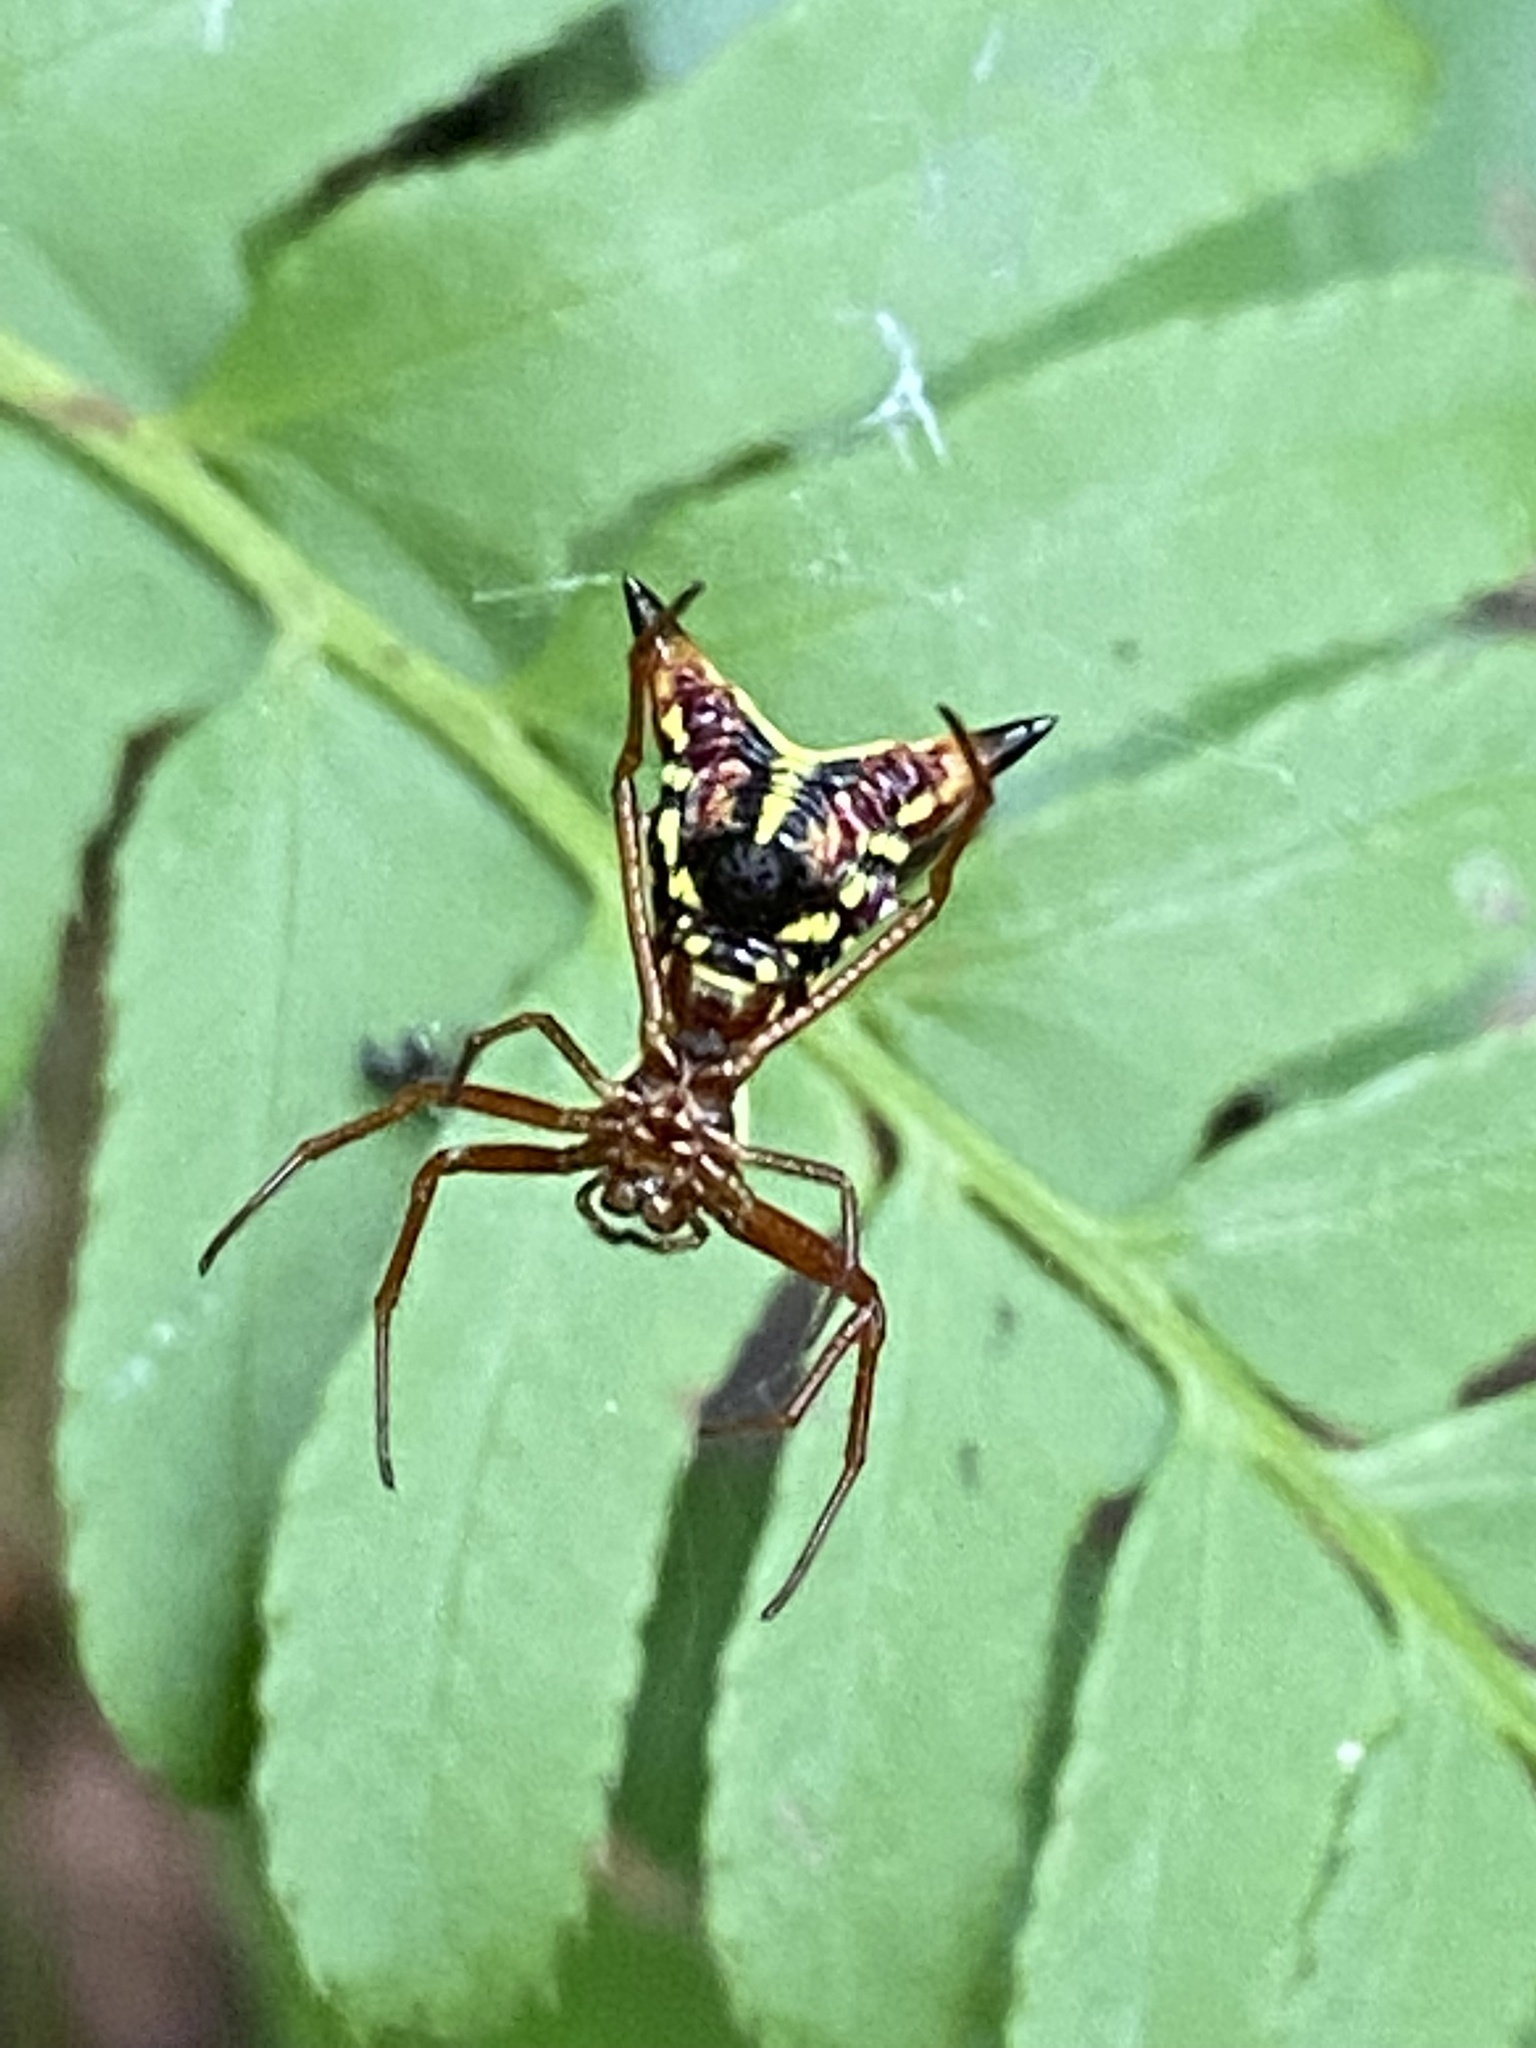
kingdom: Animalia
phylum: Arthropoda
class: Arachnida
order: Araneae
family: Araneidae
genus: Micrathena
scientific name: Micrathena sagittata
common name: Orb weavers
